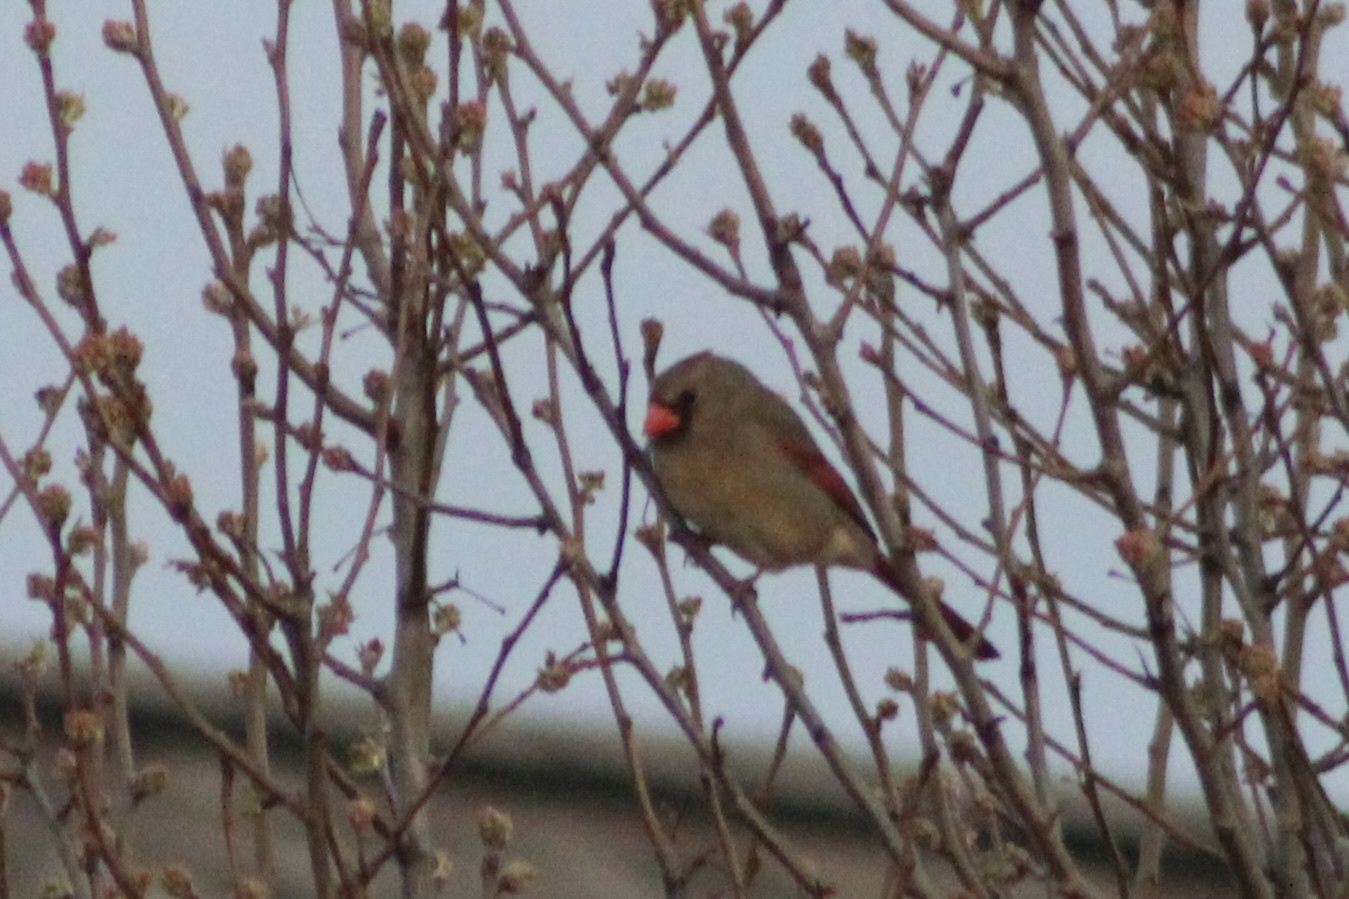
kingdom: Animalia
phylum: Chordata
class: Aves
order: Passeriformes
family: Cardinalidae
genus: Cardinalis
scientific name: Cardinalis cardinalis
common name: Northern cardinal
